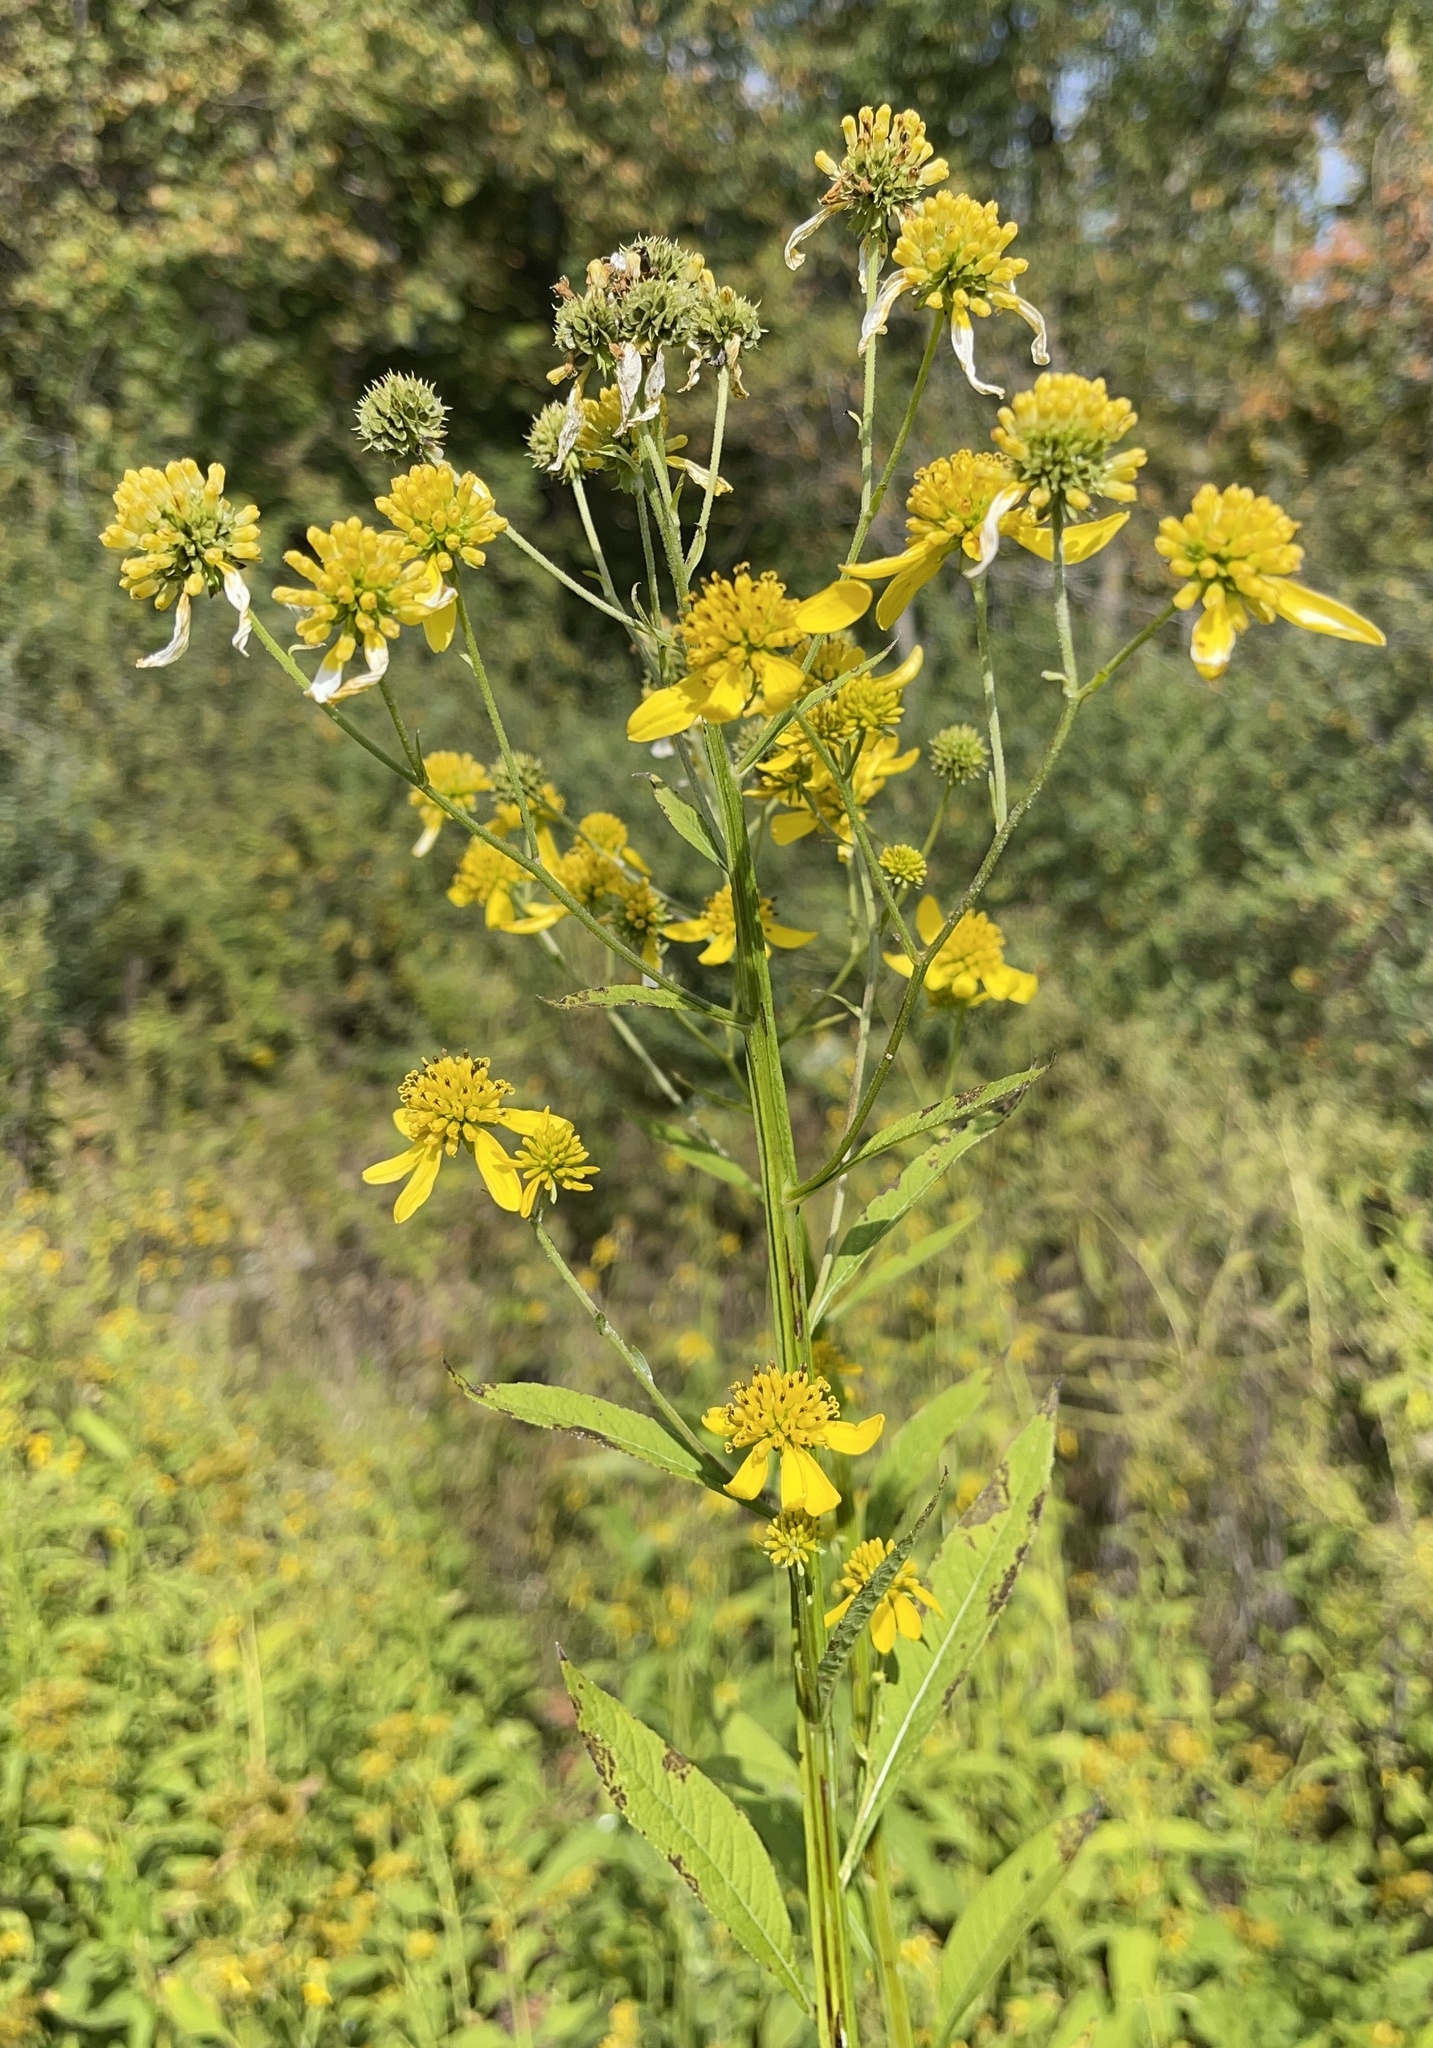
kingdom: Plantae
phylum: Tracheophyta
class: Magnoliopsida
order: Asterales
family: Asteraceae
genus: Verbesina
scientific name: Verbesina alternifolia
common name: Wingstem
